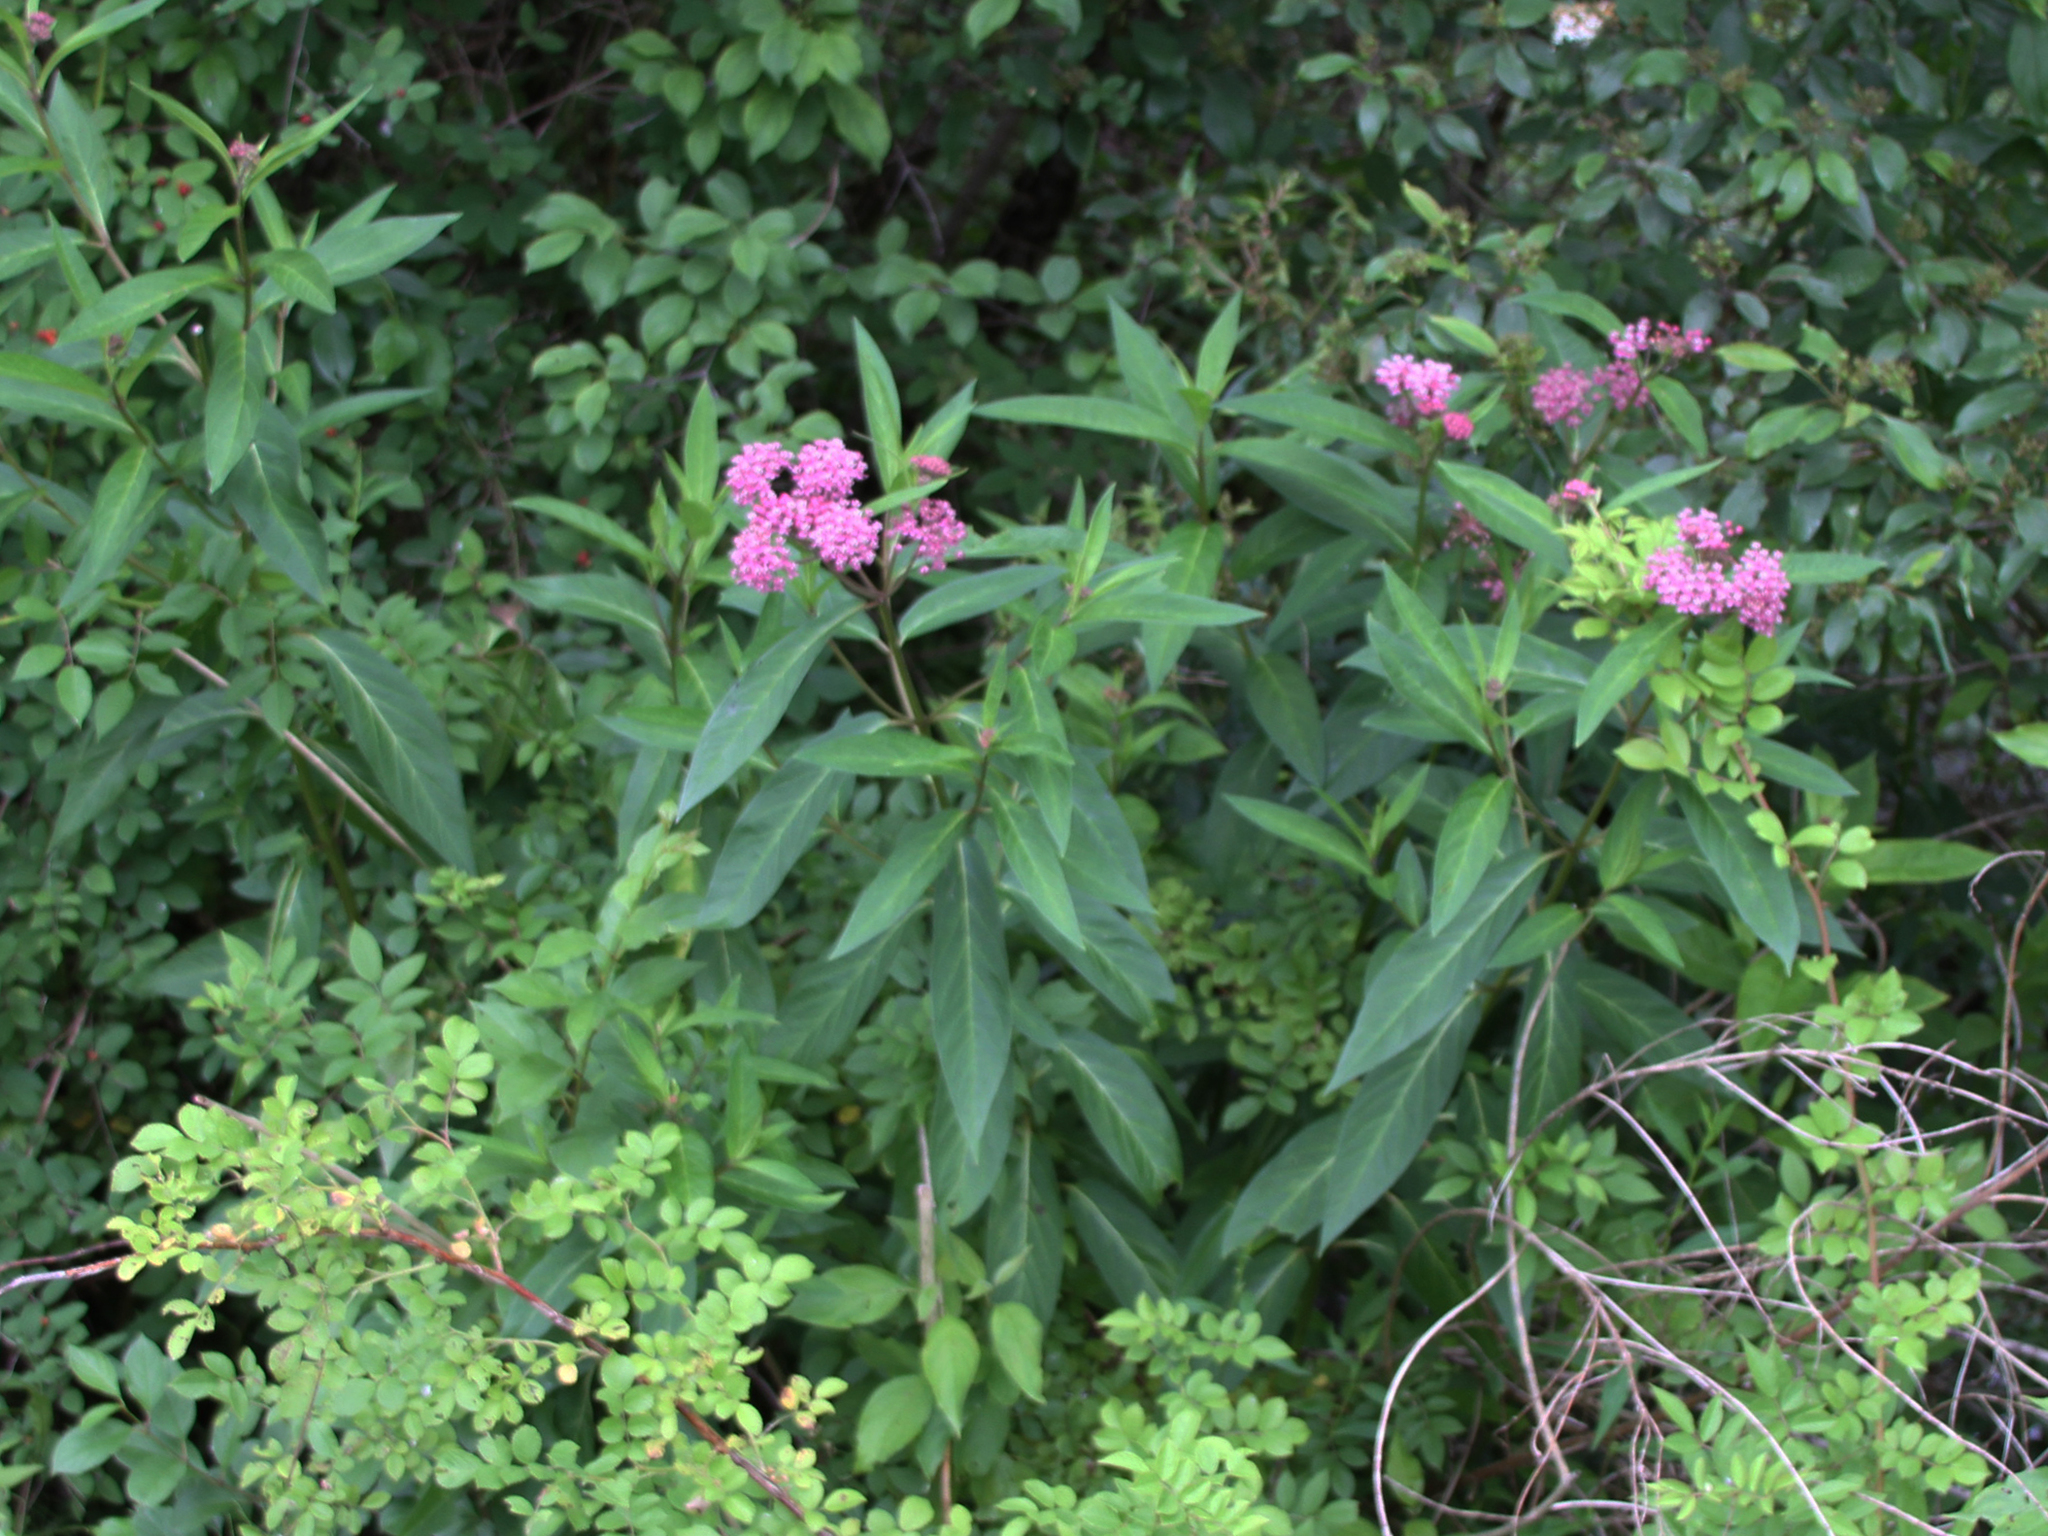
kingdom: Plantae
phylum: Tracheophyta
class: Magnoliopsida
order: Gentianales
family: Apocynaceae
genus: Asclepias
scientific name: Asclepias incarnata
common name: Swamp milkweed
